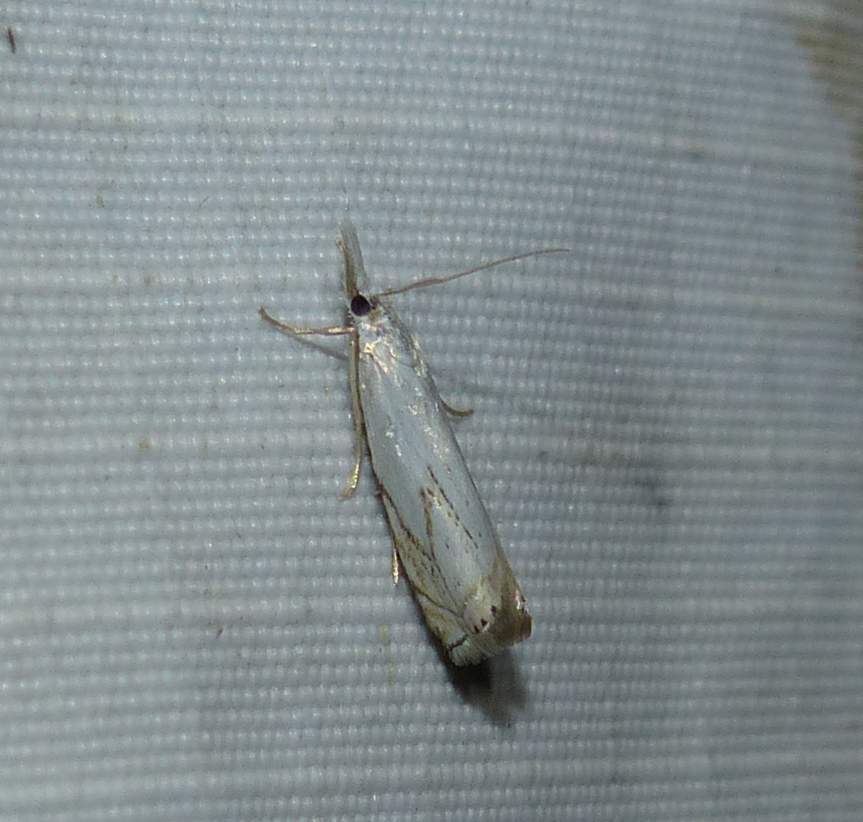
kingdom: Animalia
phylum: Arthropoda
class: Insecta
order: Lepidoptera
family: Crambidae
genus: Crambus
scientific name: Crambus albellus
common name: Small white grass-veneer
